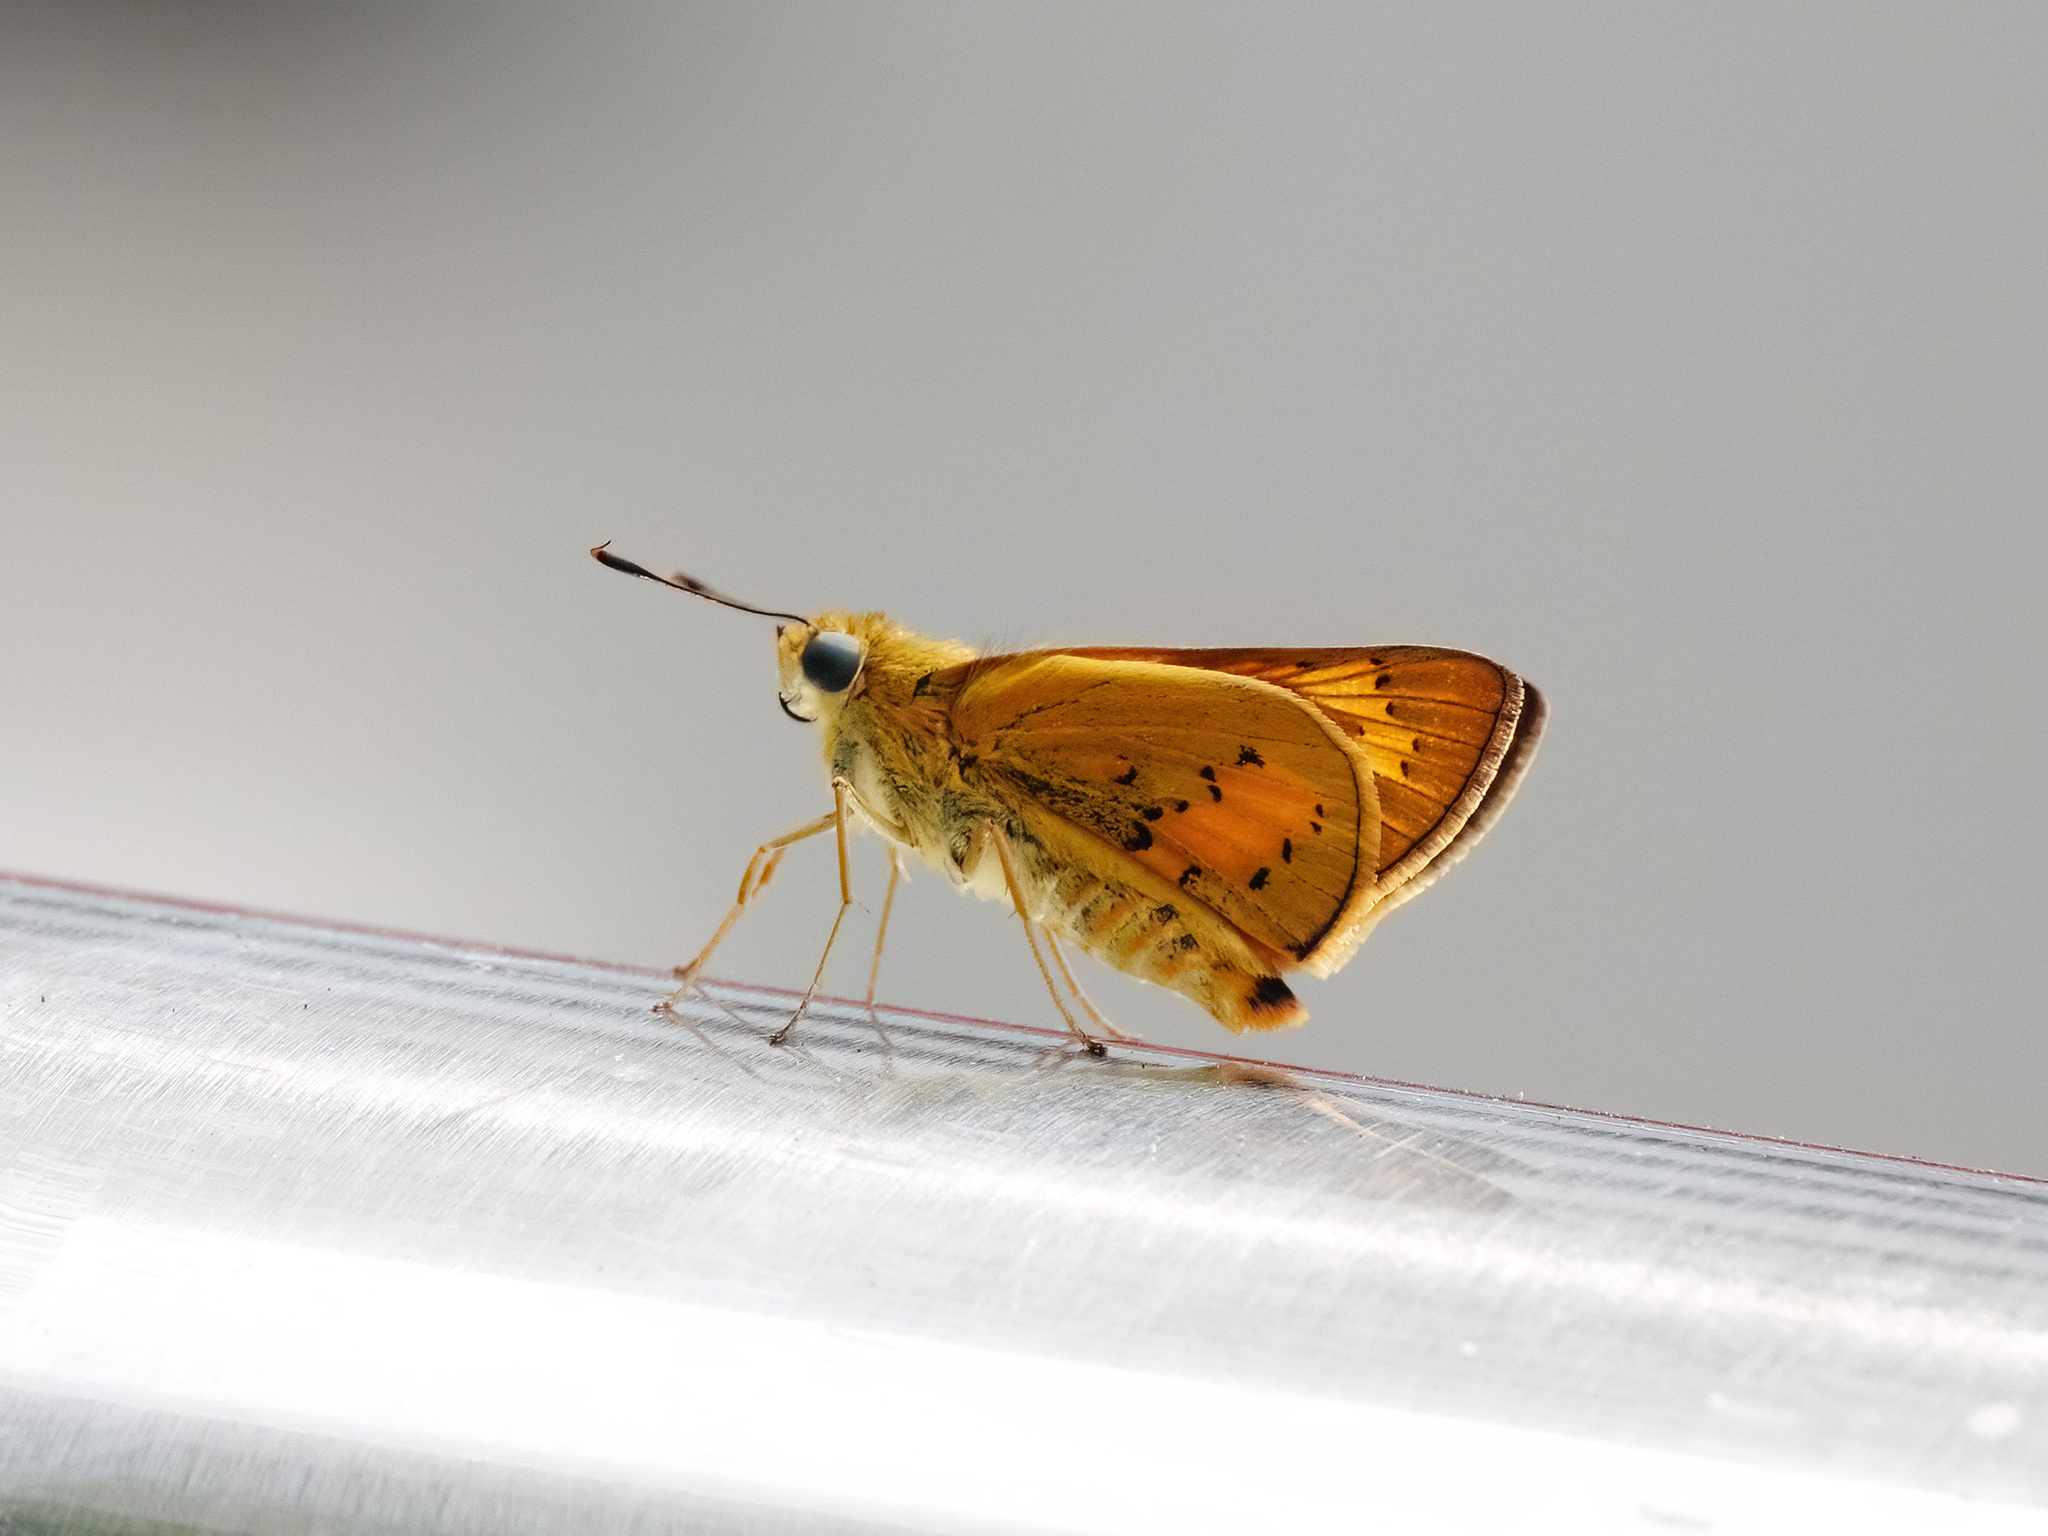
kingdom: Animalia
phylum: Arthropoda
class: Insecta
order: Lepidoptera
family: Hesperiidae
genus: Cephrenes
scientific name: Cephrenes trichopepla
